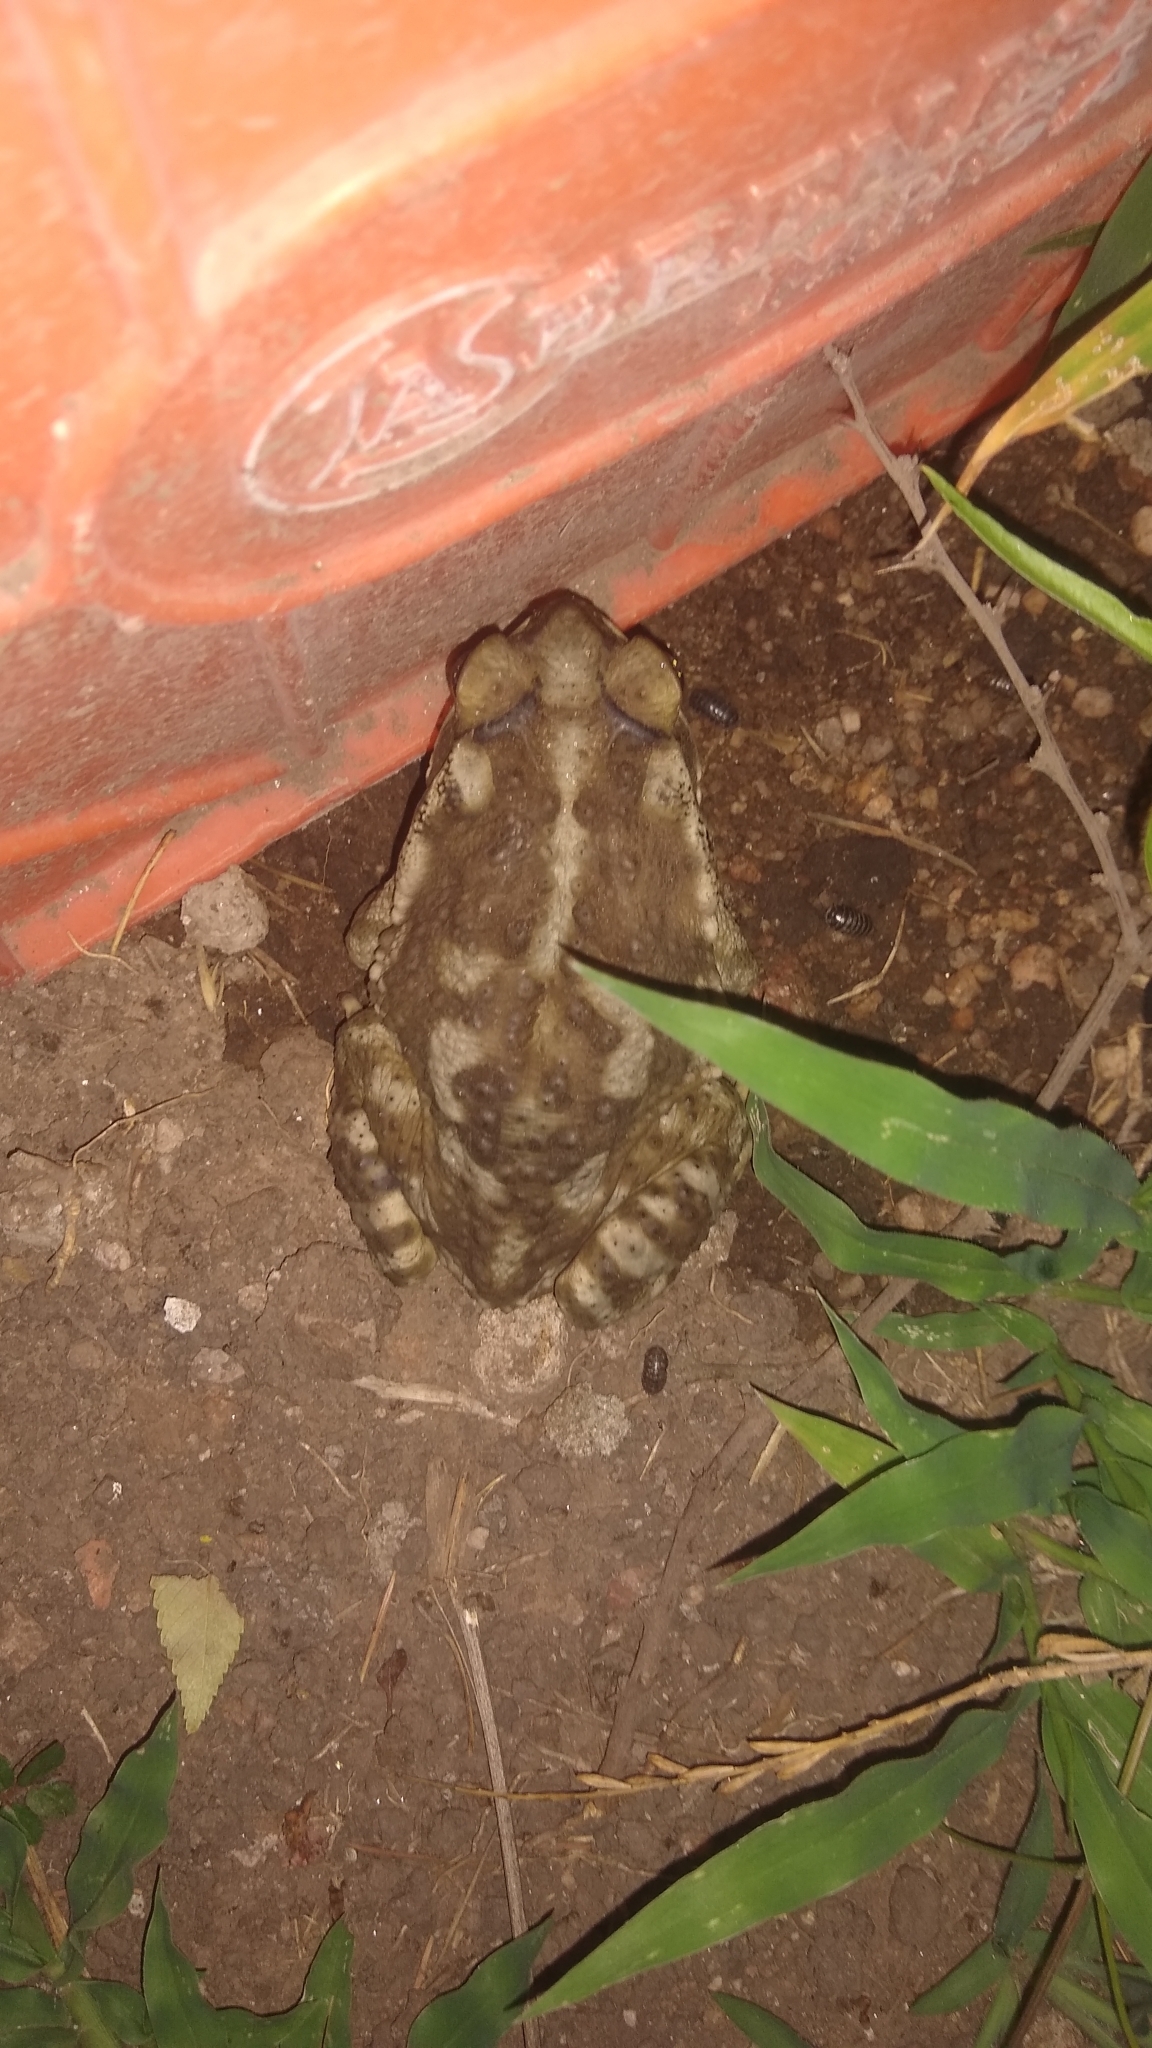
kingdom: Animalia
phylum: Chordata
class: Amphibia
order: Anura
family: Bufonidae
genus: Rhinella
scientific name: Rhinella arenarum
